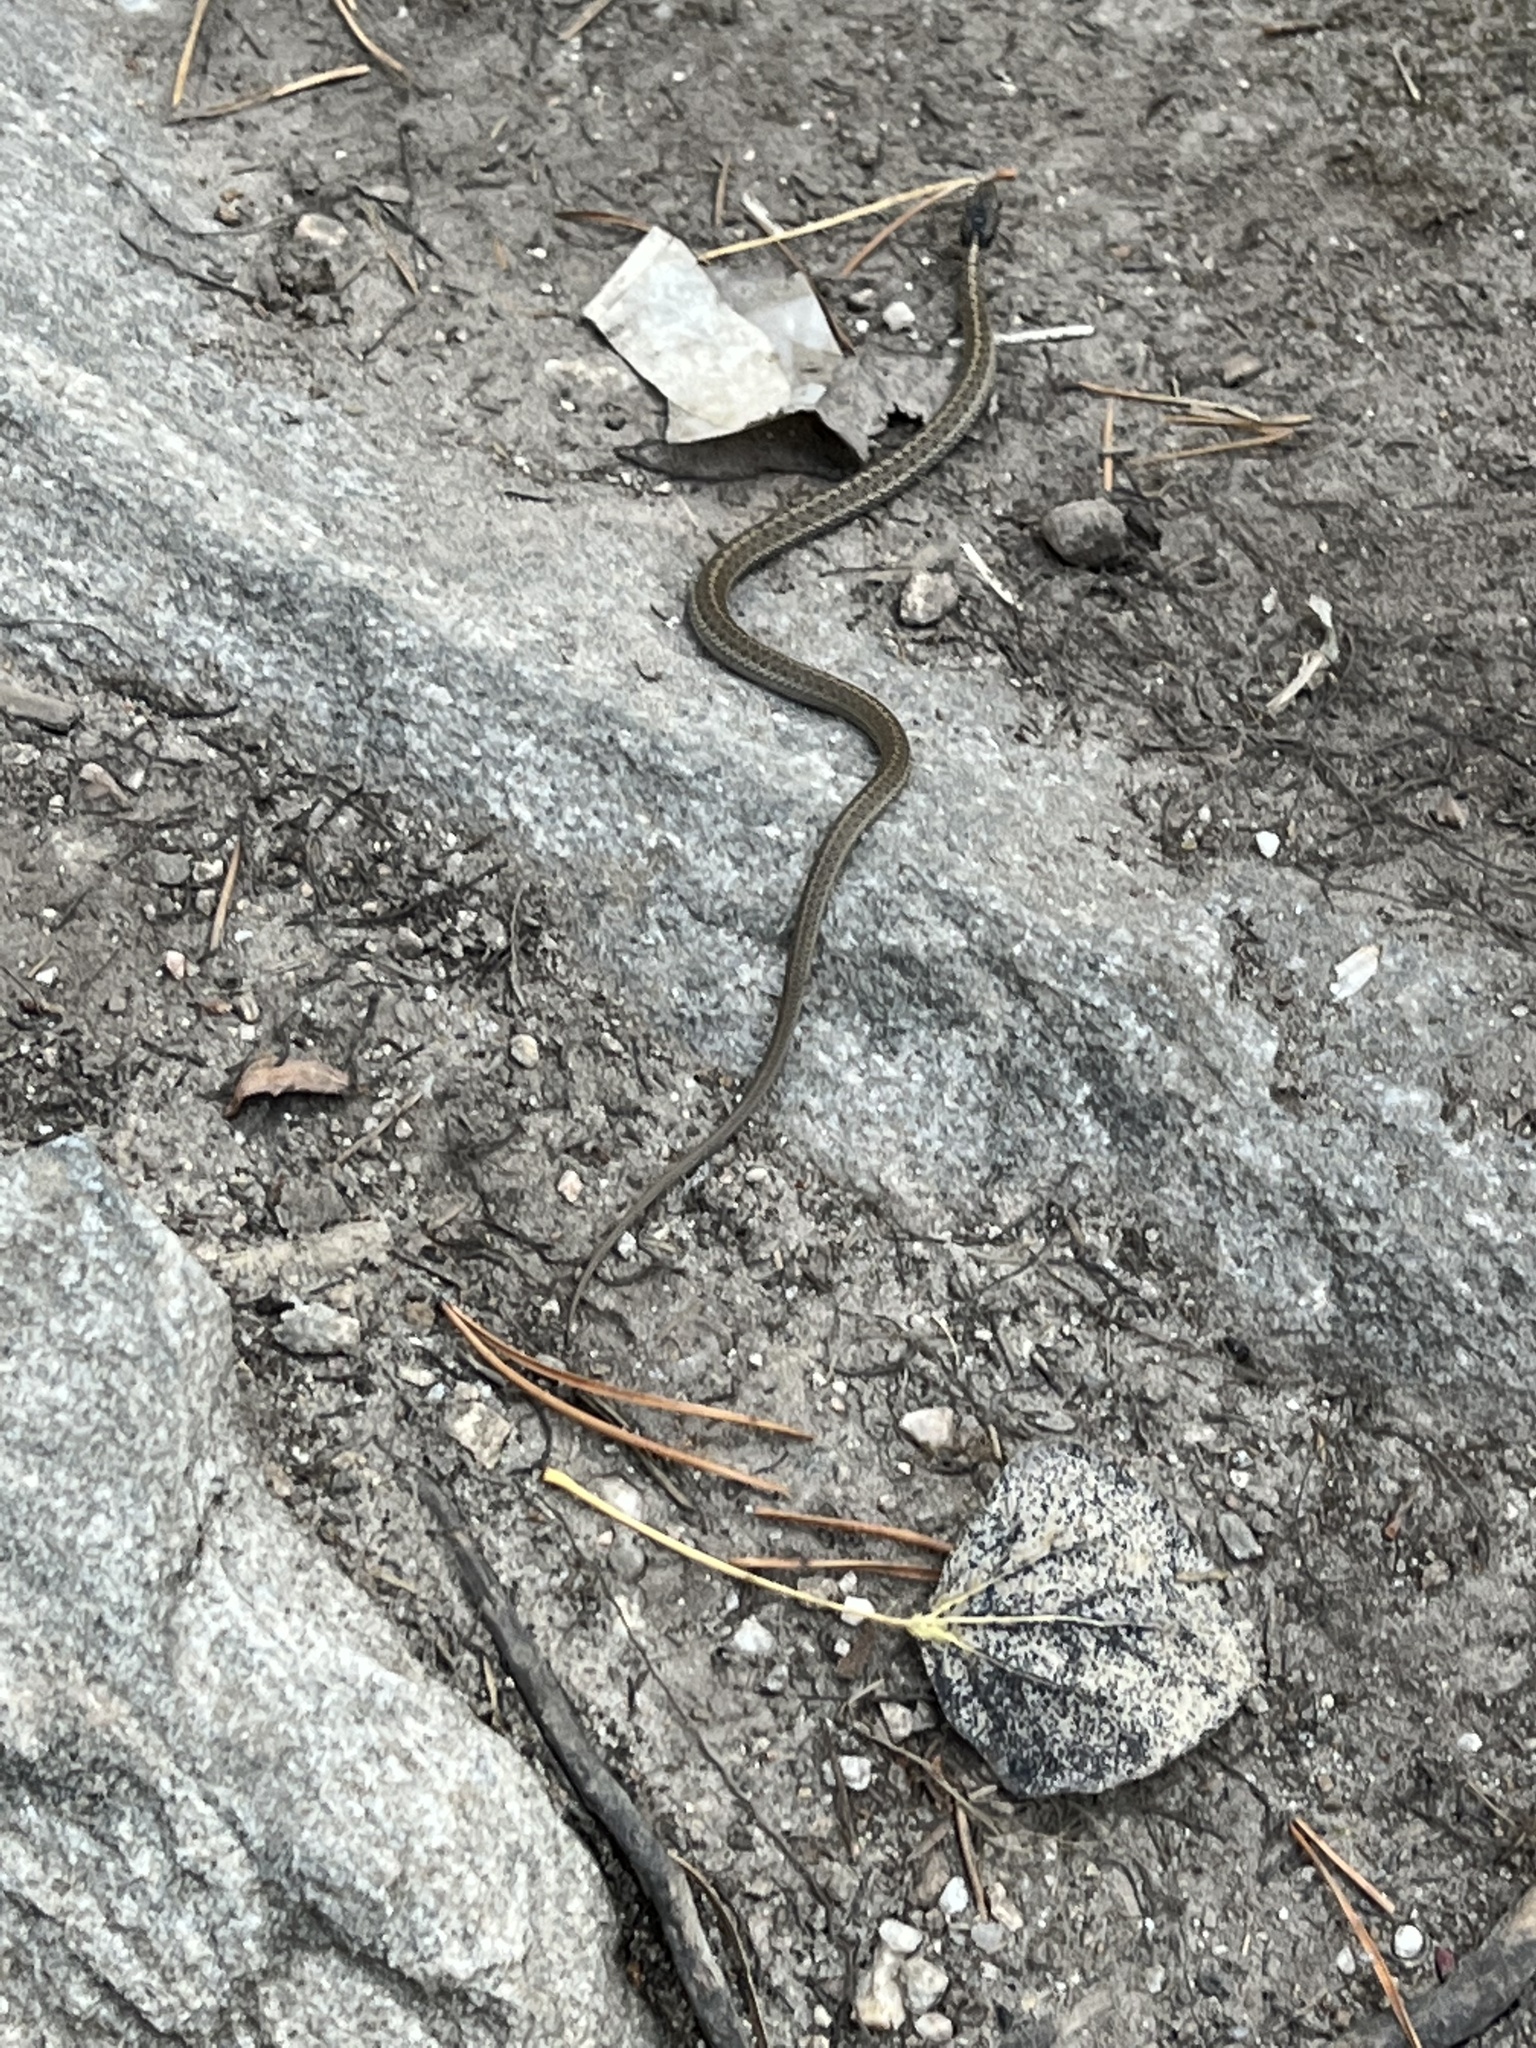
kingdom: Animalia
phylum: Chordata
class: Squamata
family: Colubridae
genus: Thamnophis
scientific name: Thamnophis elegans
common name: Western terrestrial garter snake
